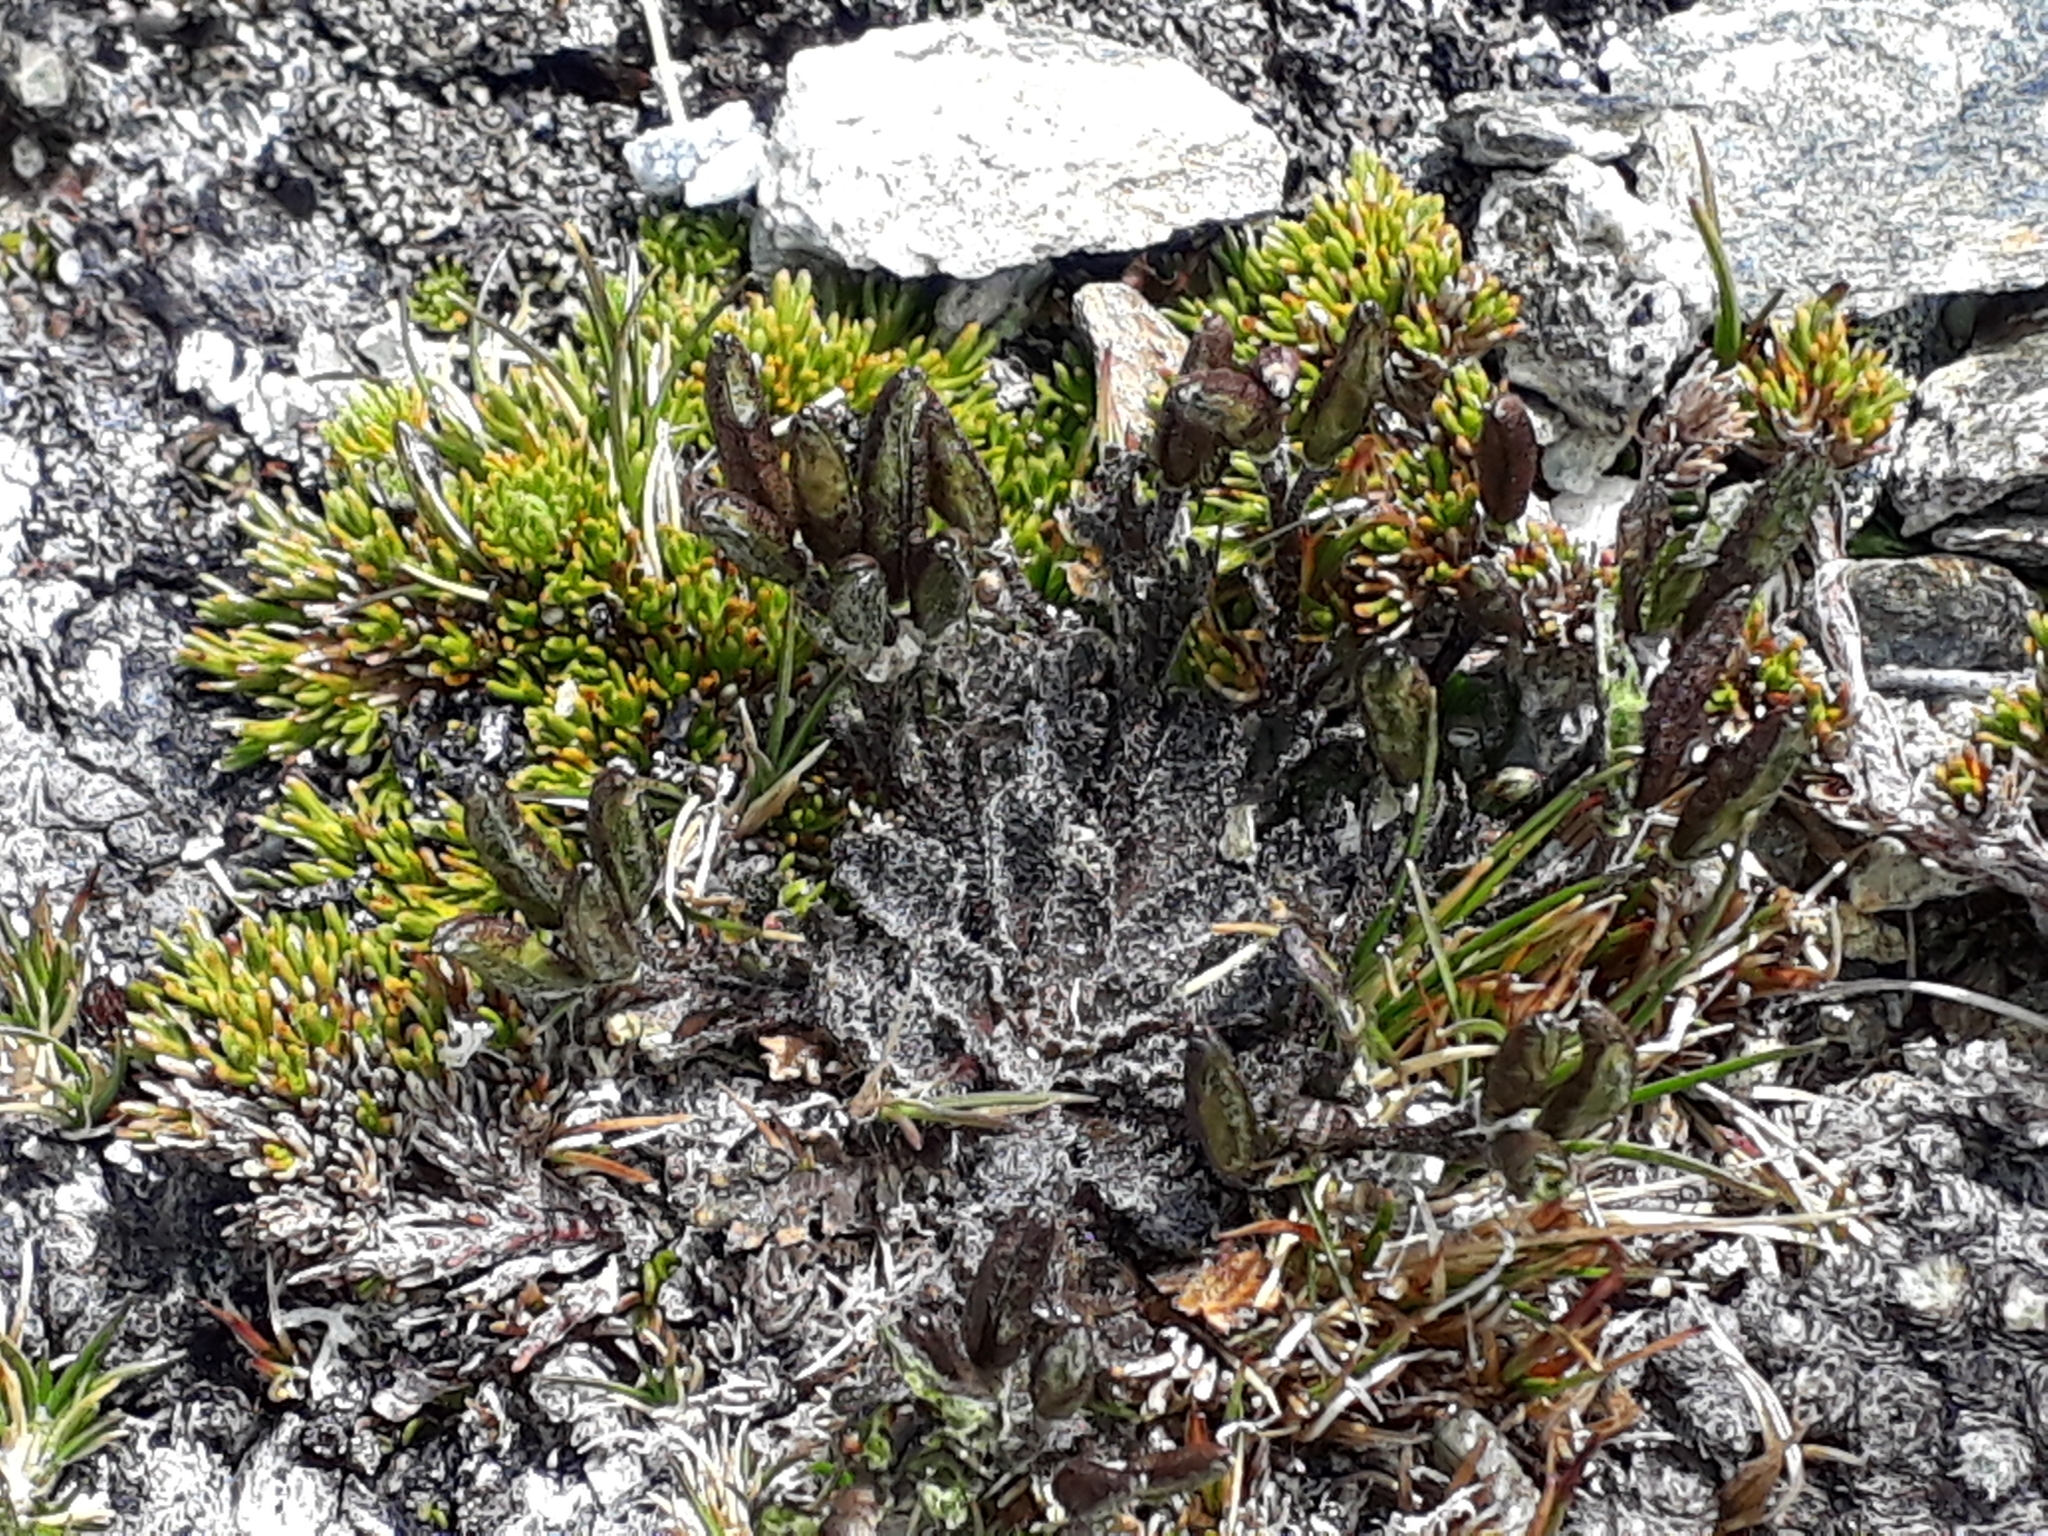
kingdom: Plantae
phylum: Tracheophyta
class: Magnoliopsida
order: Brassicales
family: Brassicaceae
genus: Pachycladon
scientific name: Pachycladon novae-zelandiae
